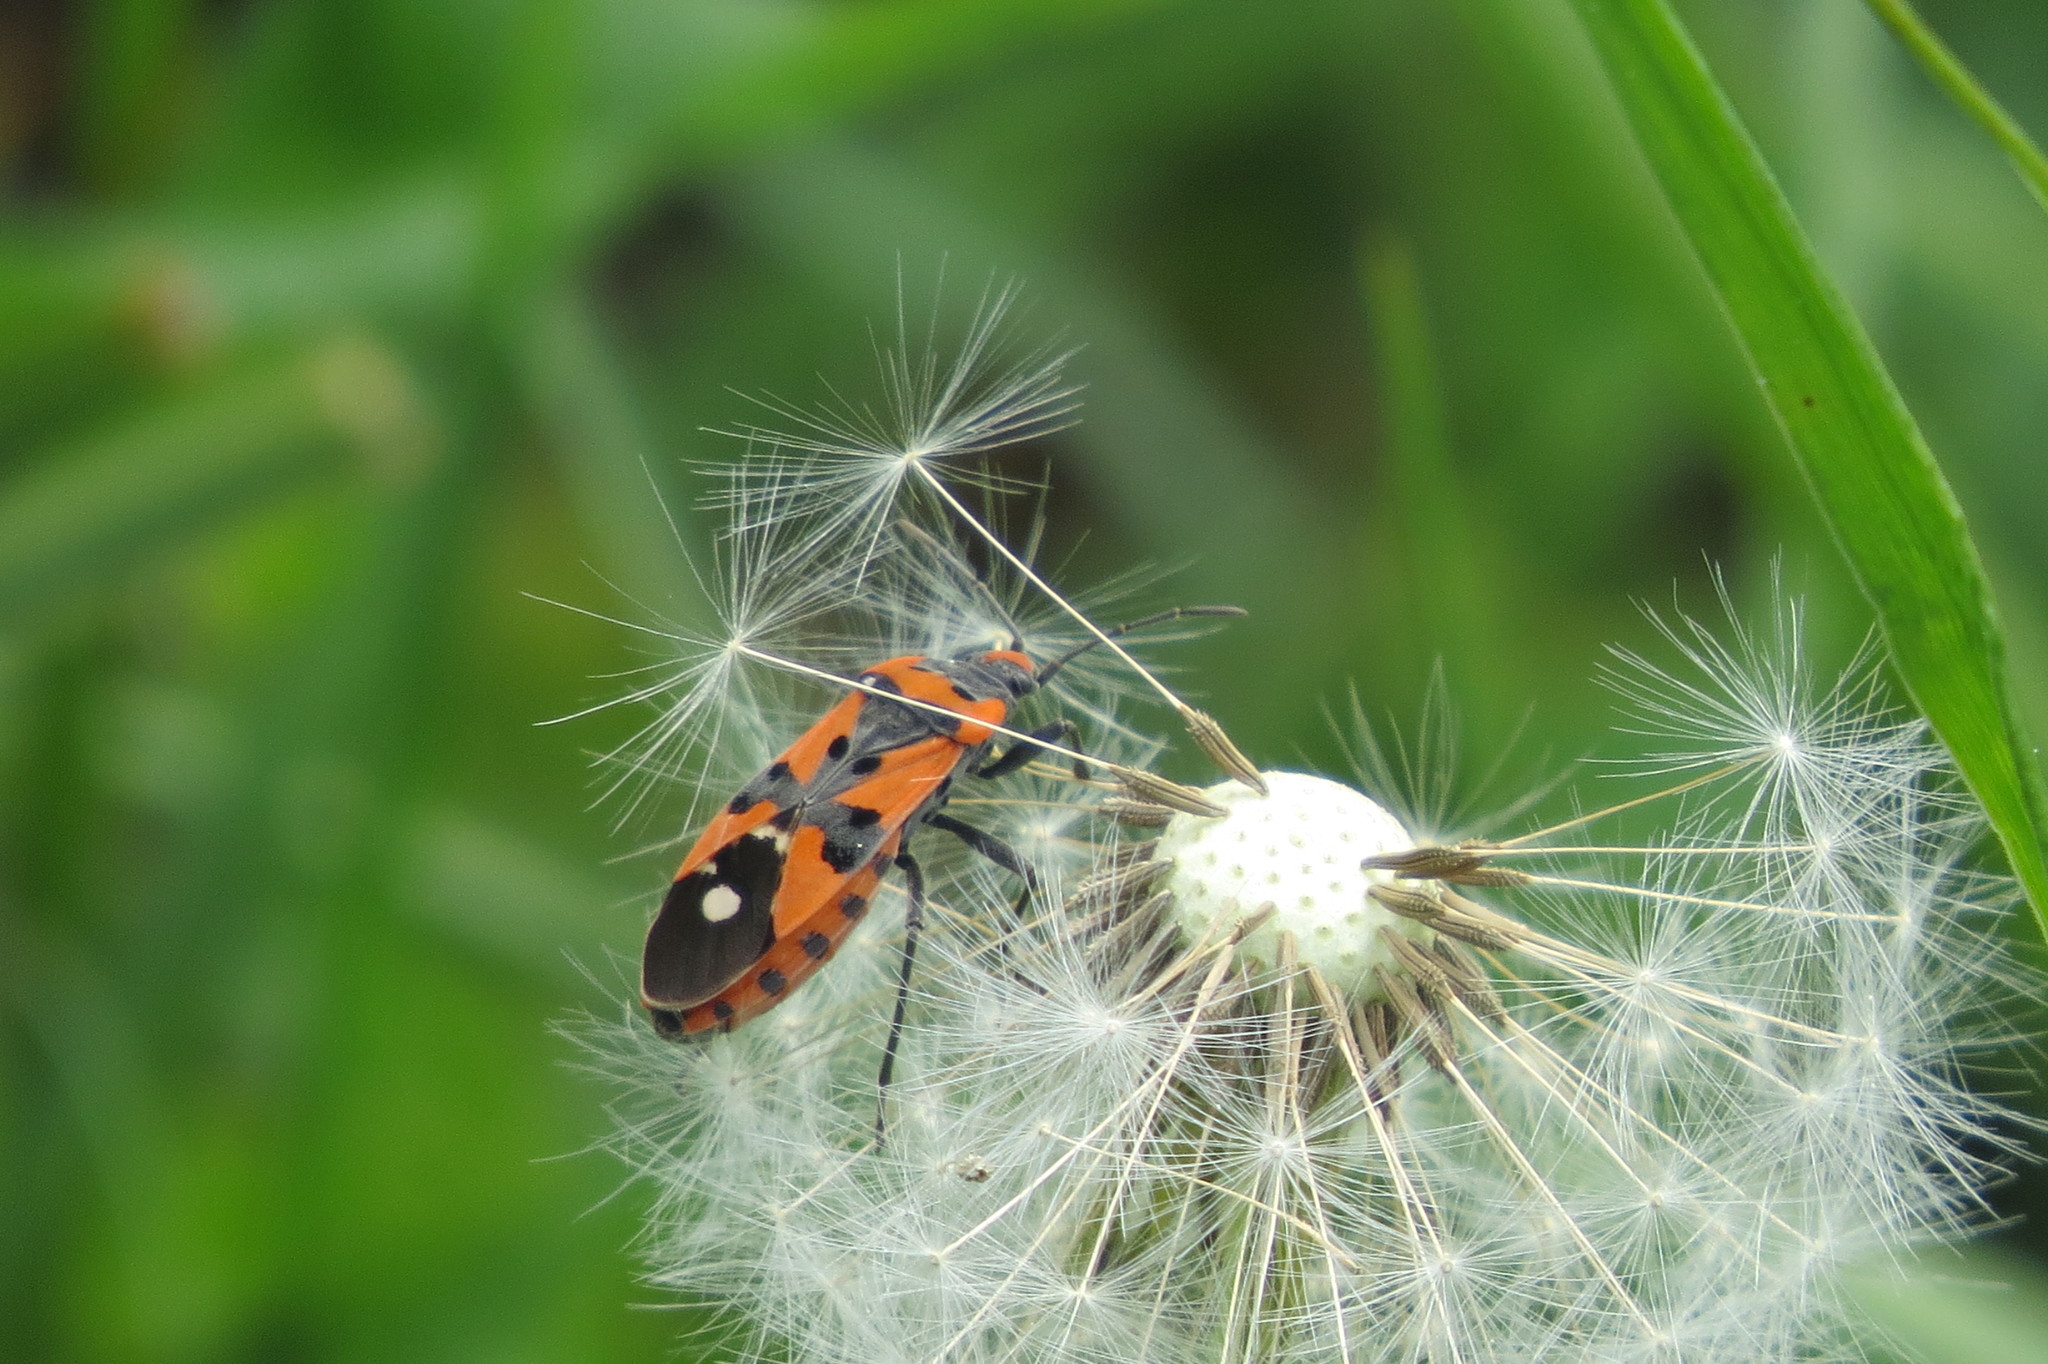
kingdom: Animalia
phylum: Arthropoda
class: Insecta
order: Hemiptera
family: Lygaeidae
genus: Lygaeus
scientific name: Lygaeus equestris
